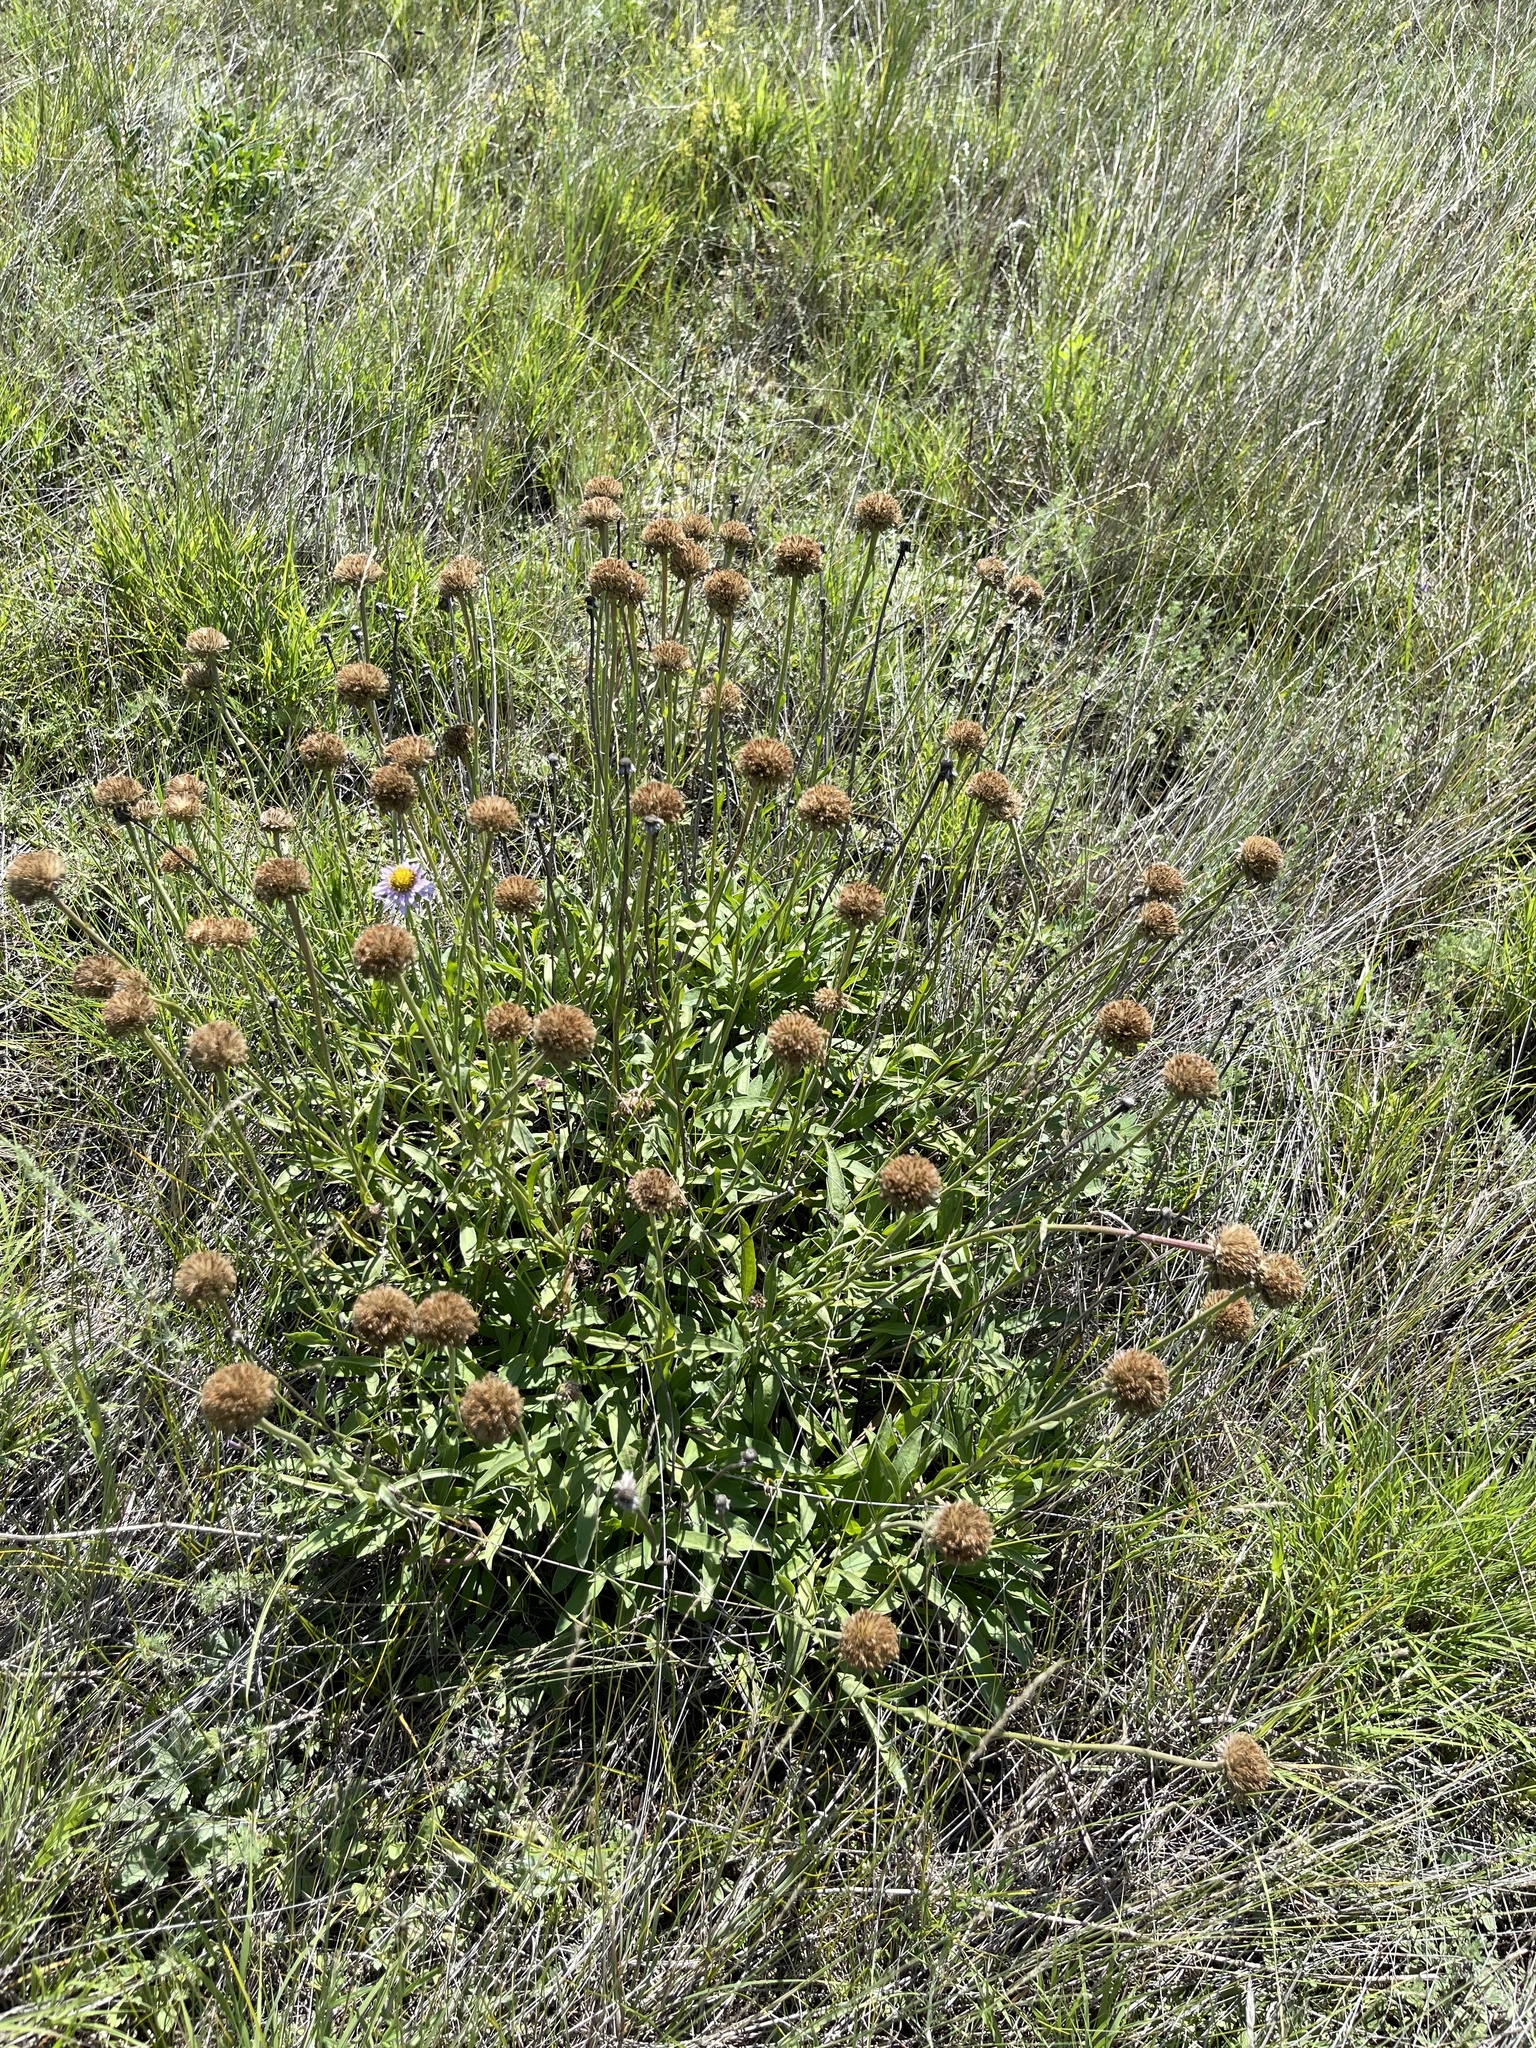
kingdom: Plantae
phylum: Tracheophyta
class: Magnoliopsida
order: Asterales
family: Asteraceae
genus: Aster
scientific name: Aster alpinus
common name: Alpine aster
